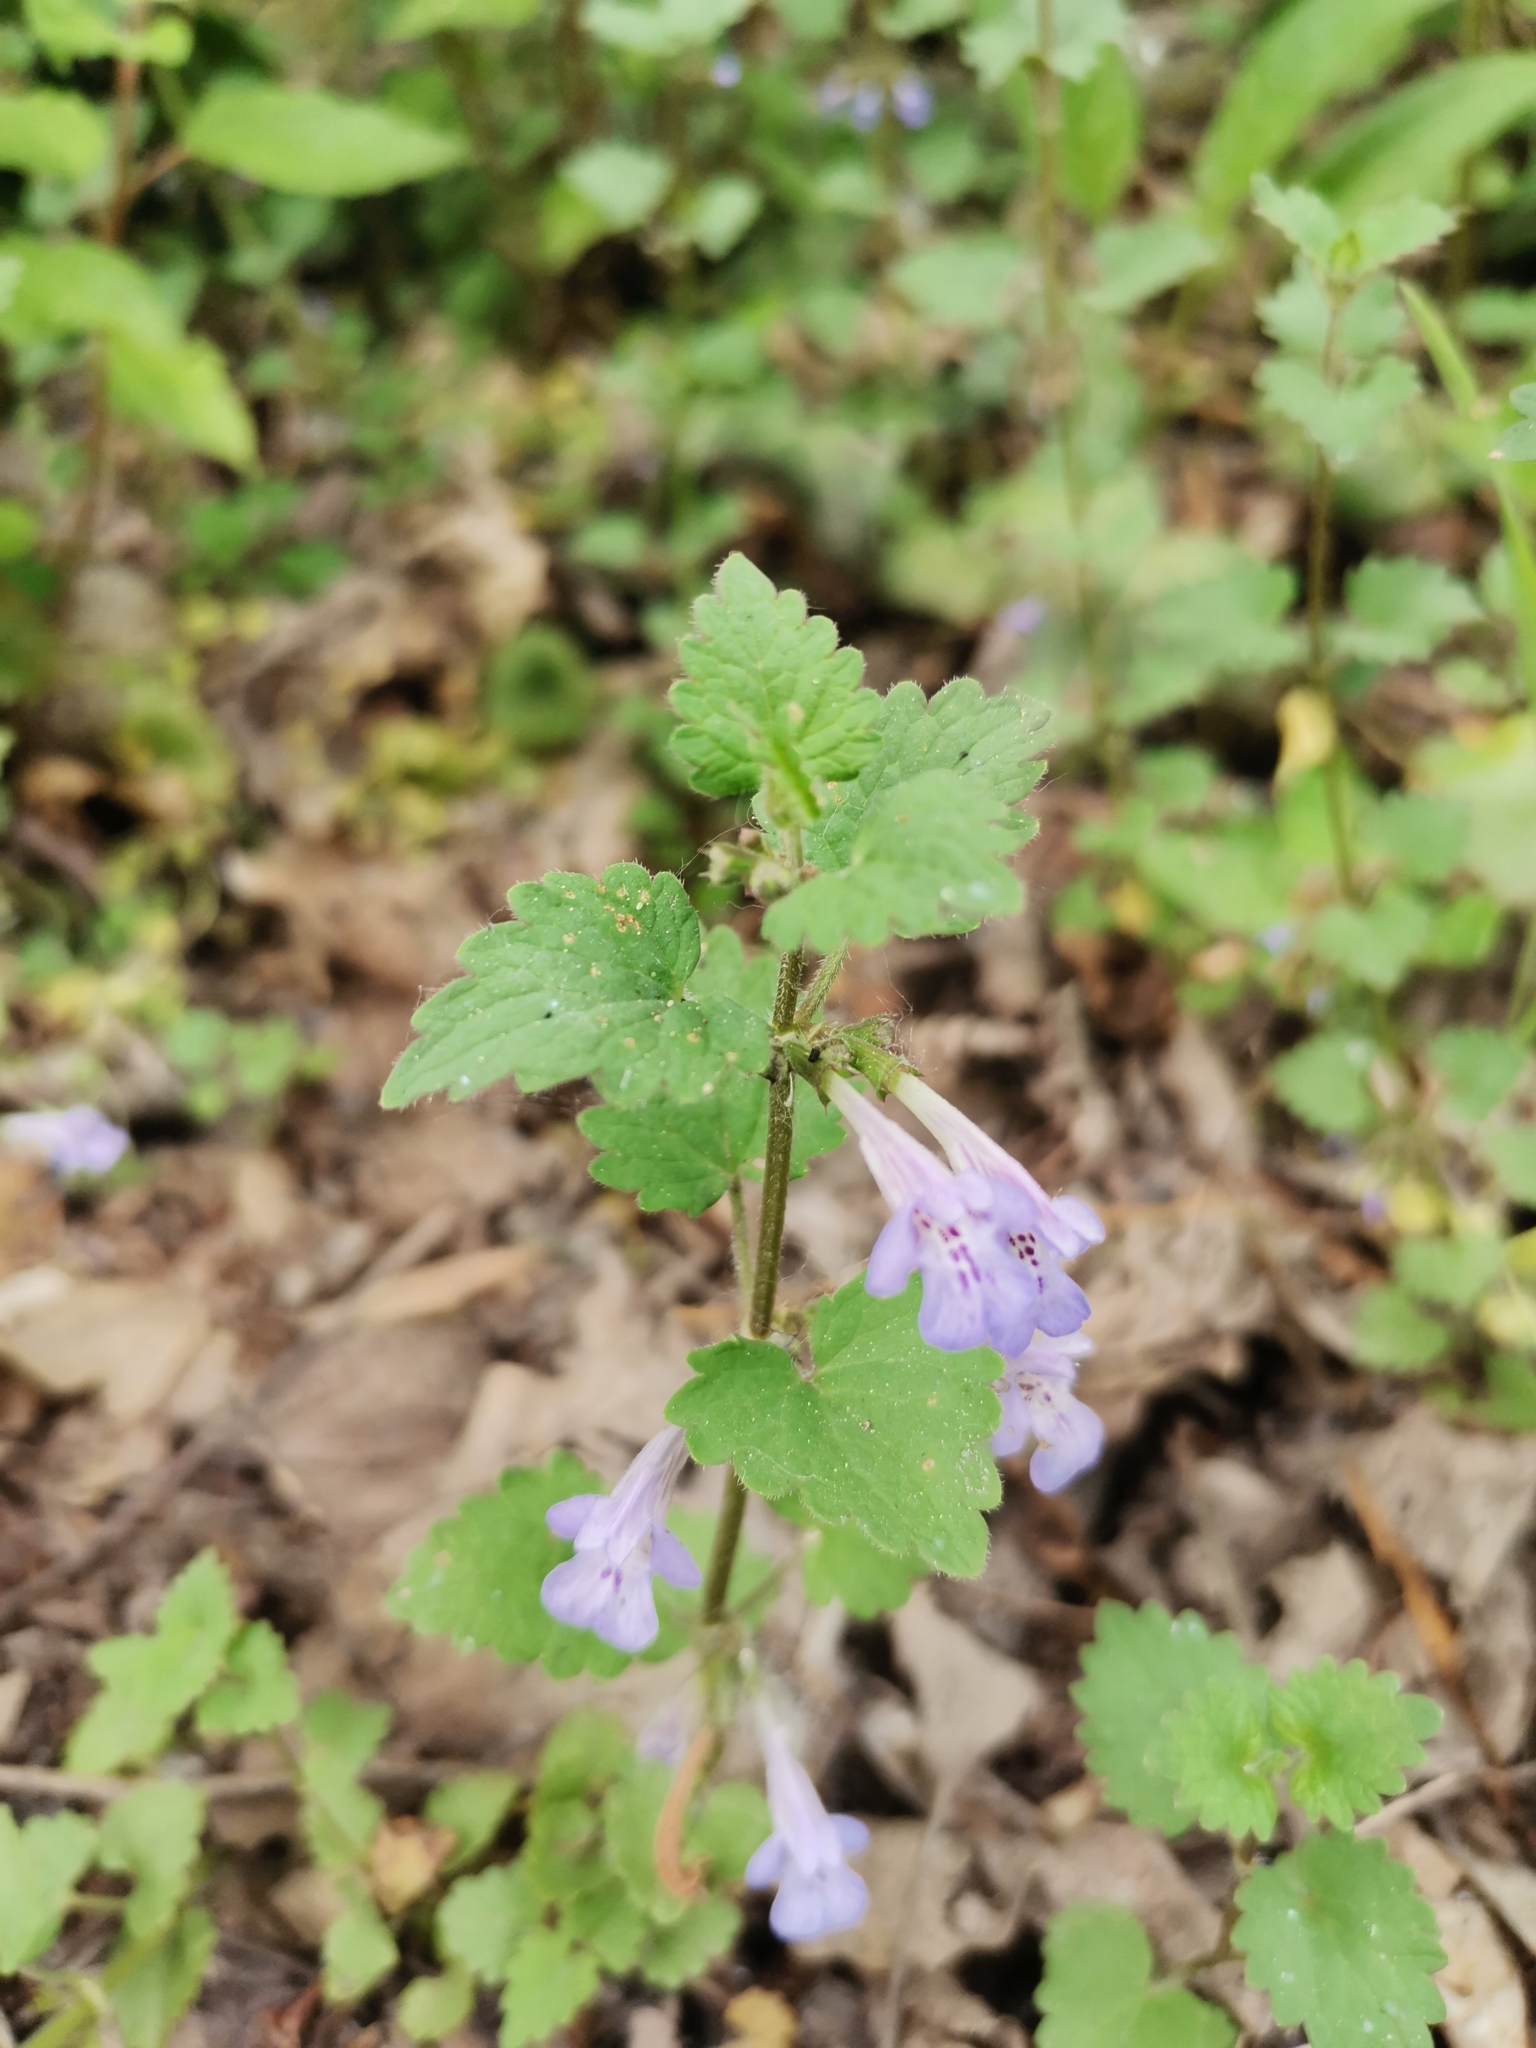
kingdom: Plantae
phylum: Tracheophyta
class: Magnoliopsida
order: Lamiales
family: Lamiaceae
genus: Glechoma
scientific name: Glechoma hederacea
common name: Ground ivy
